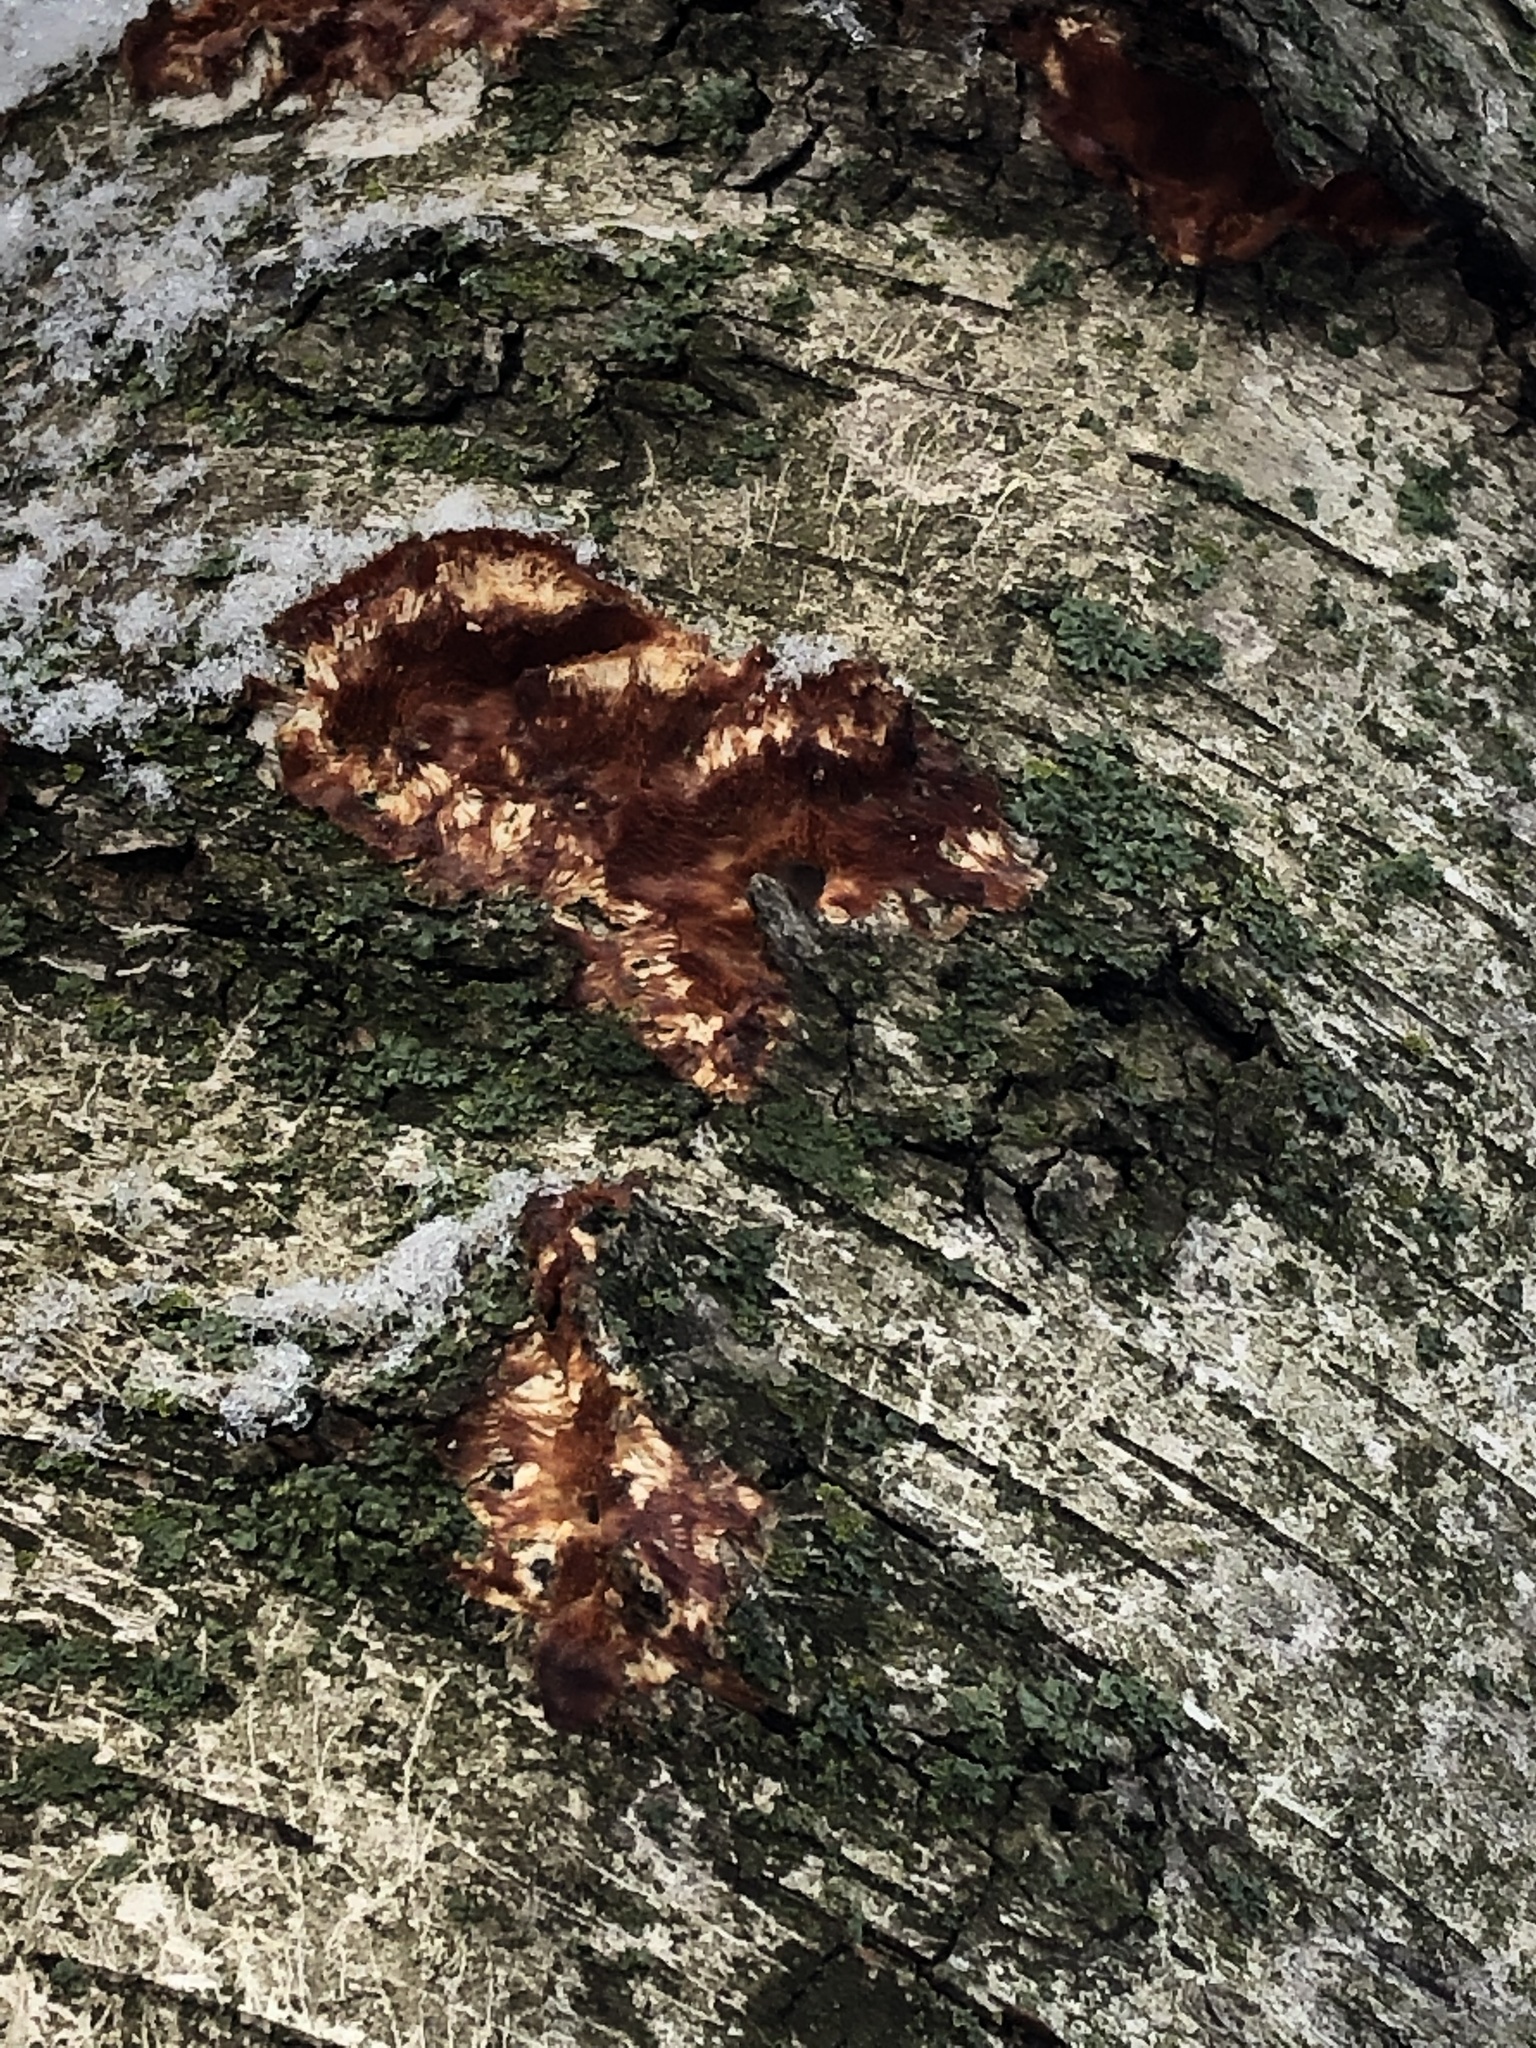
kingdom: Fungi
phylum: Basidiomycota
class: Agaricomycetes
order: Polyporales
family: Meruliaceae
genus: Phlebia
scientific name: Phlebia radiata
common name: Wrinkled crust
